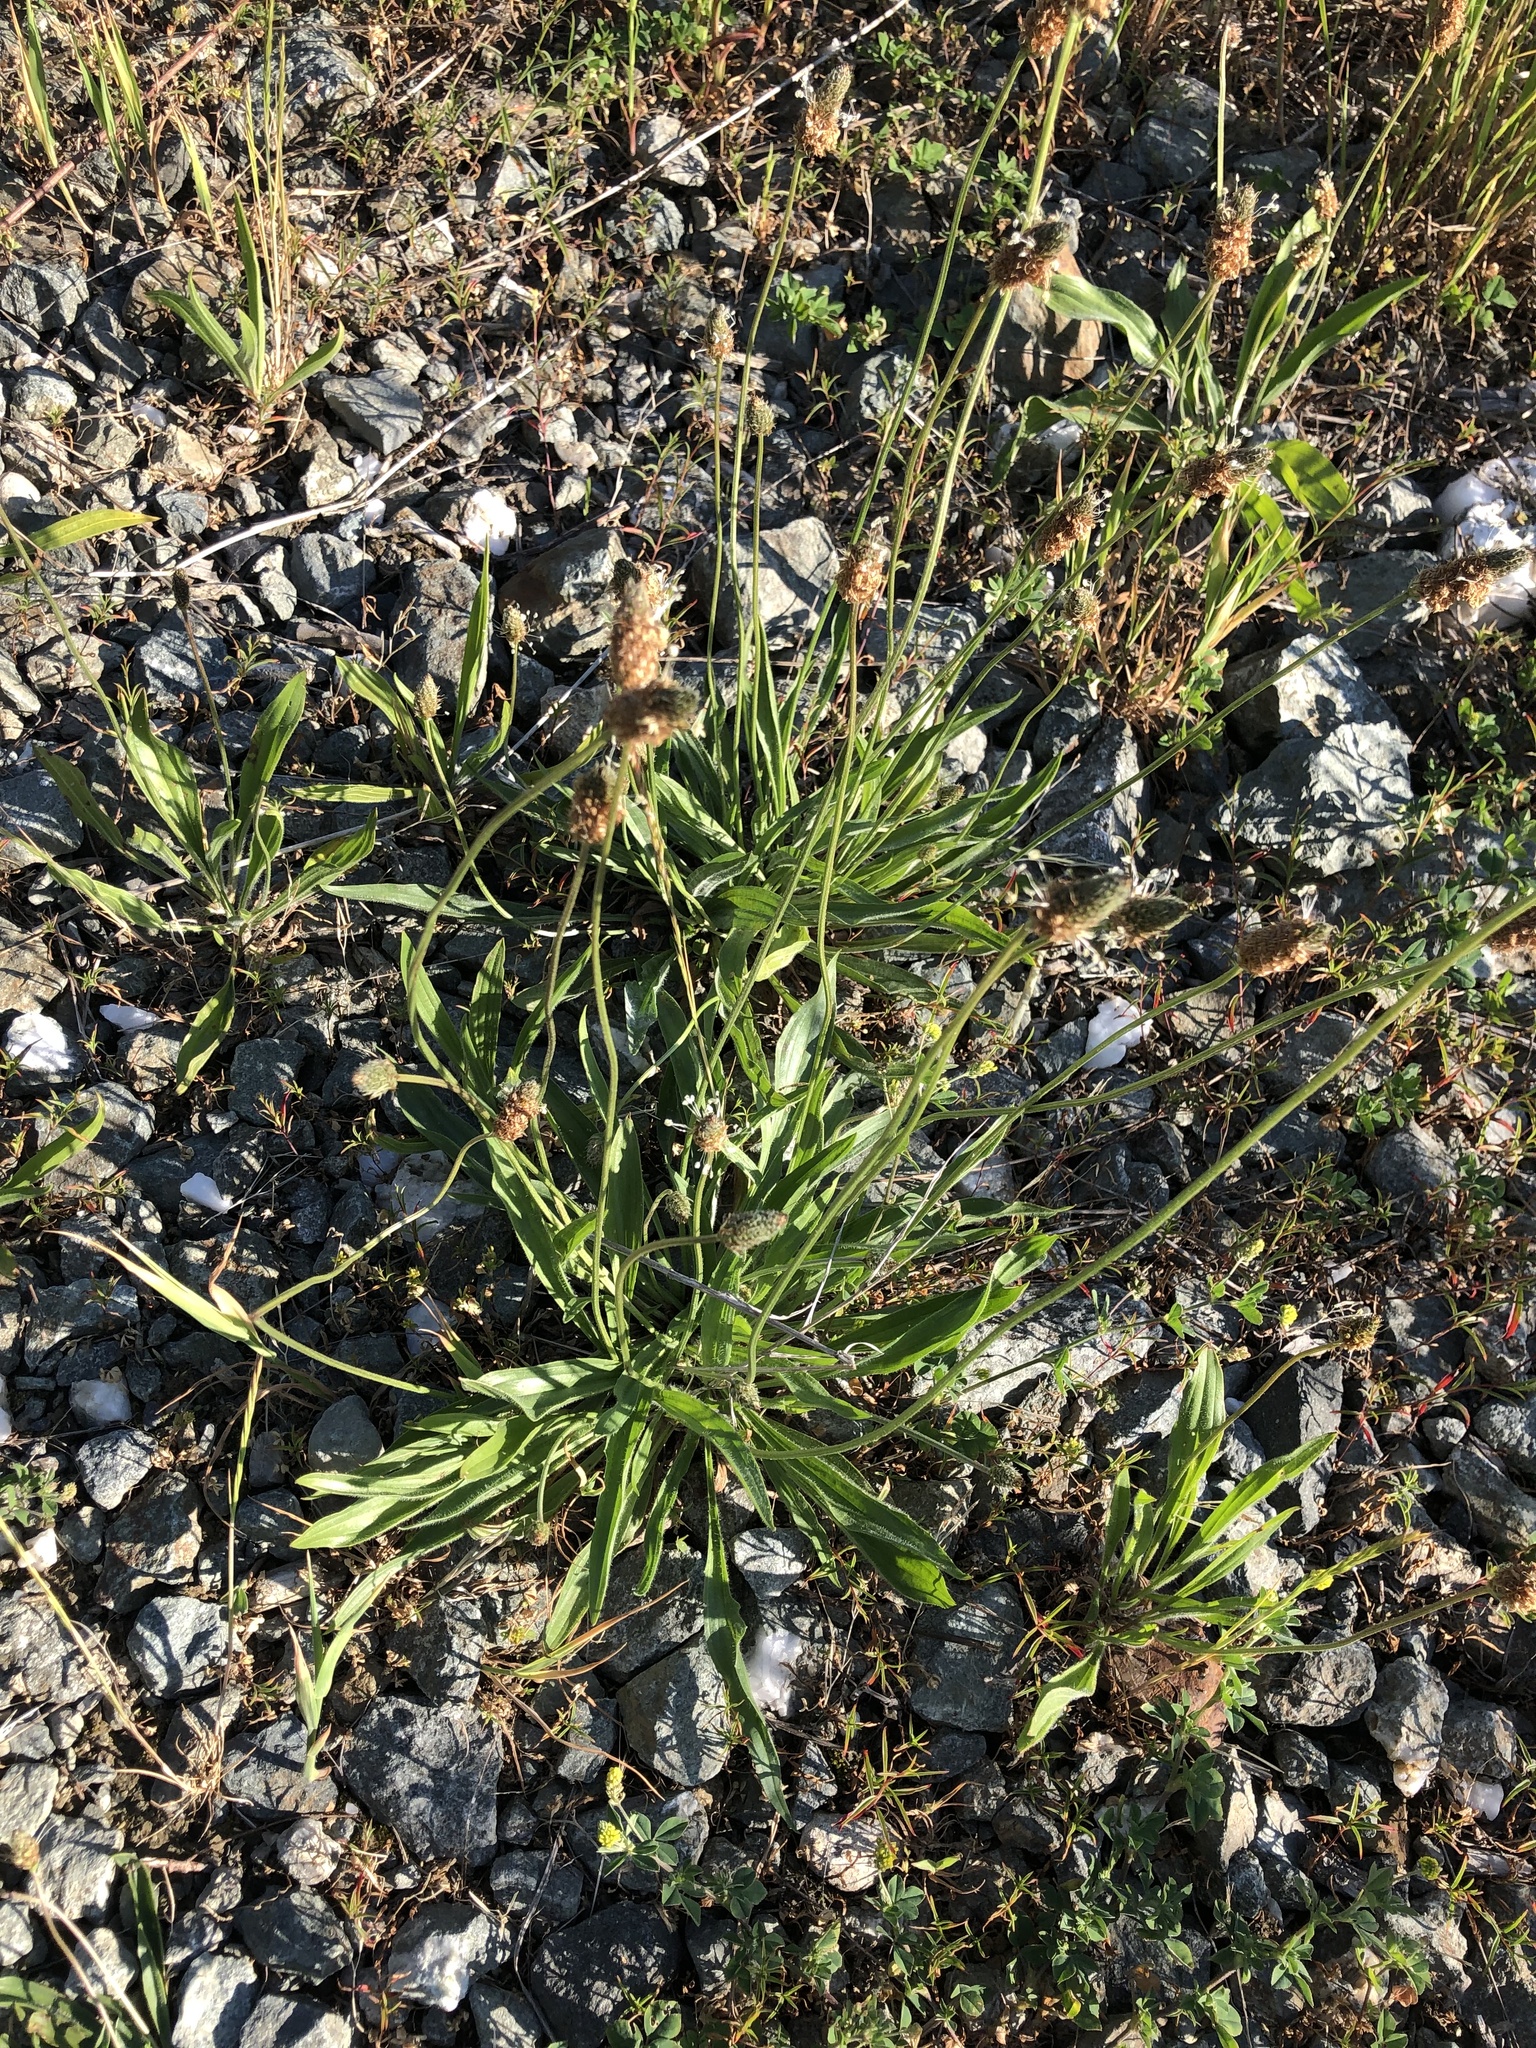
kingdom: Plantae
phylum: Tracheophyta
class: Magnoliopsida
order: Lamiales
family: Plantaginaceae
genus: Plantago
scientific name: Plantago lanceolata
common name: Ribwort plantain
